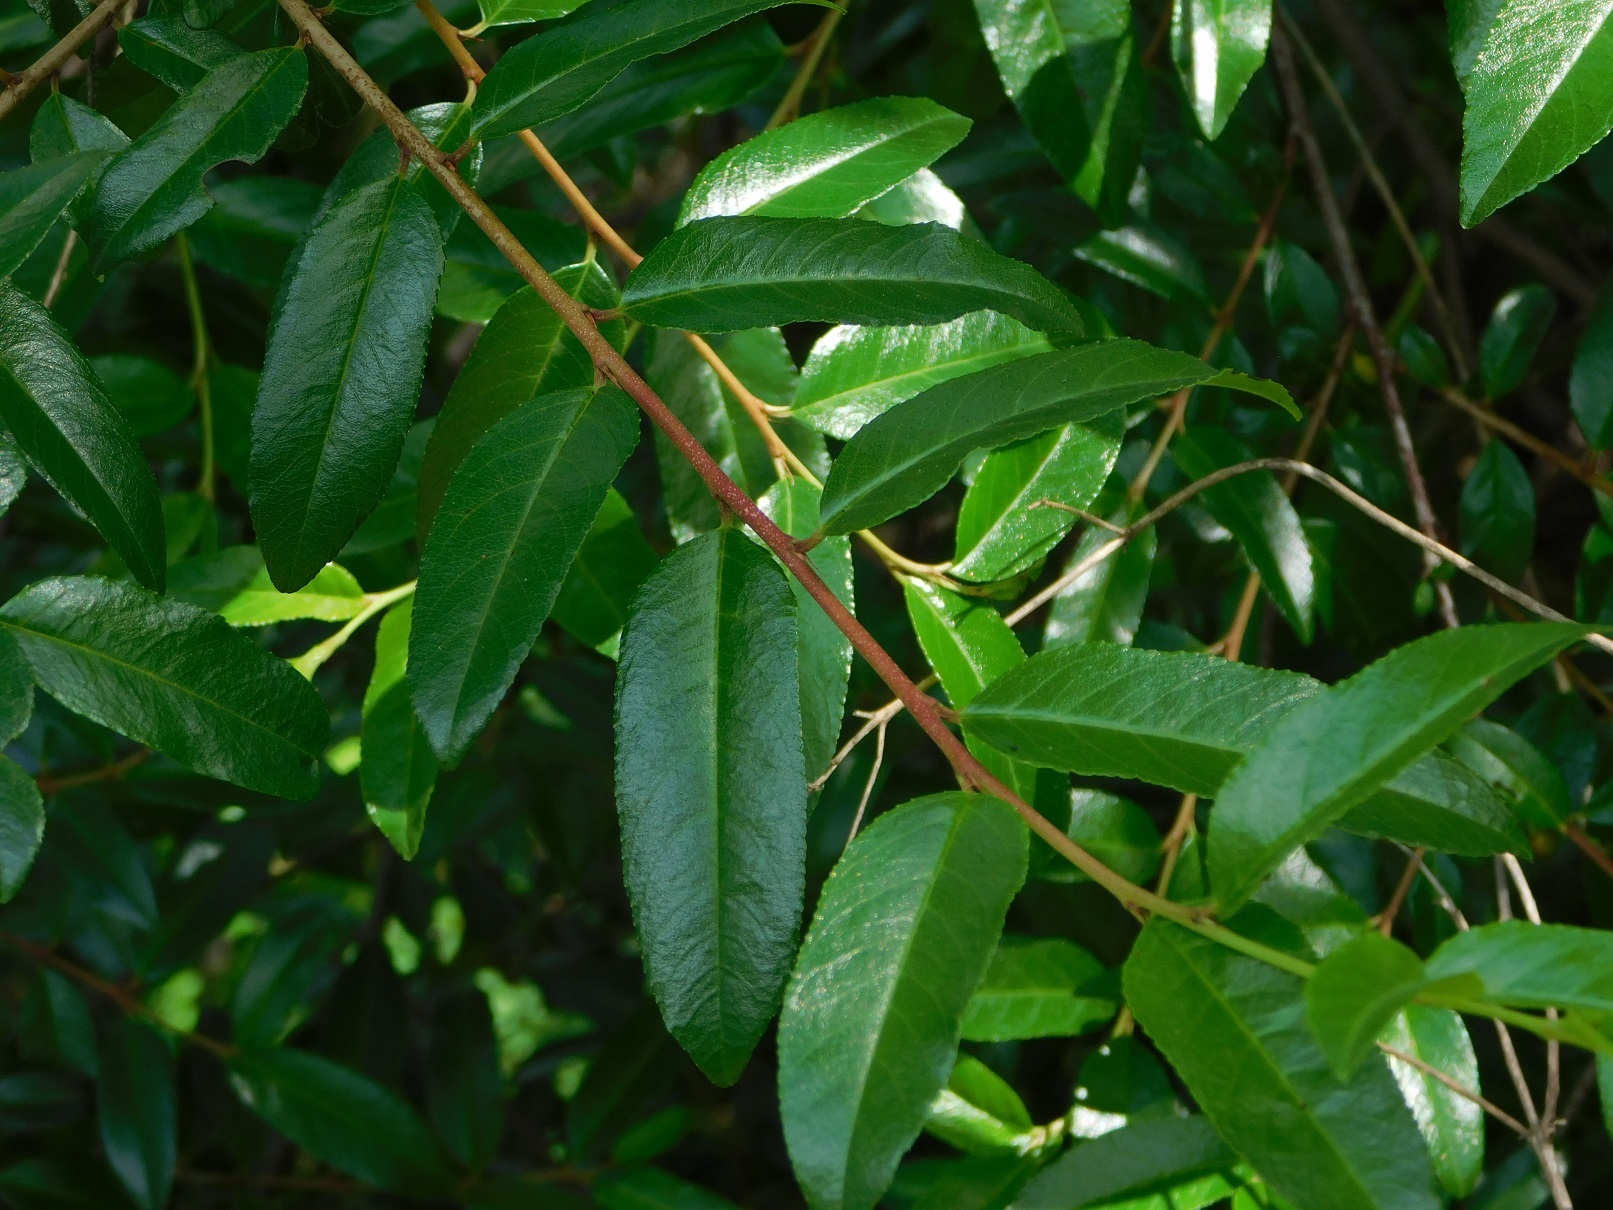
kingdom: Plantae
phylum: Tracheophyta
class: Magnoliopsida
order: Rosales
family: Rhamnaceae
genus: Frangula
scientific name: Frangula mcvaughii
